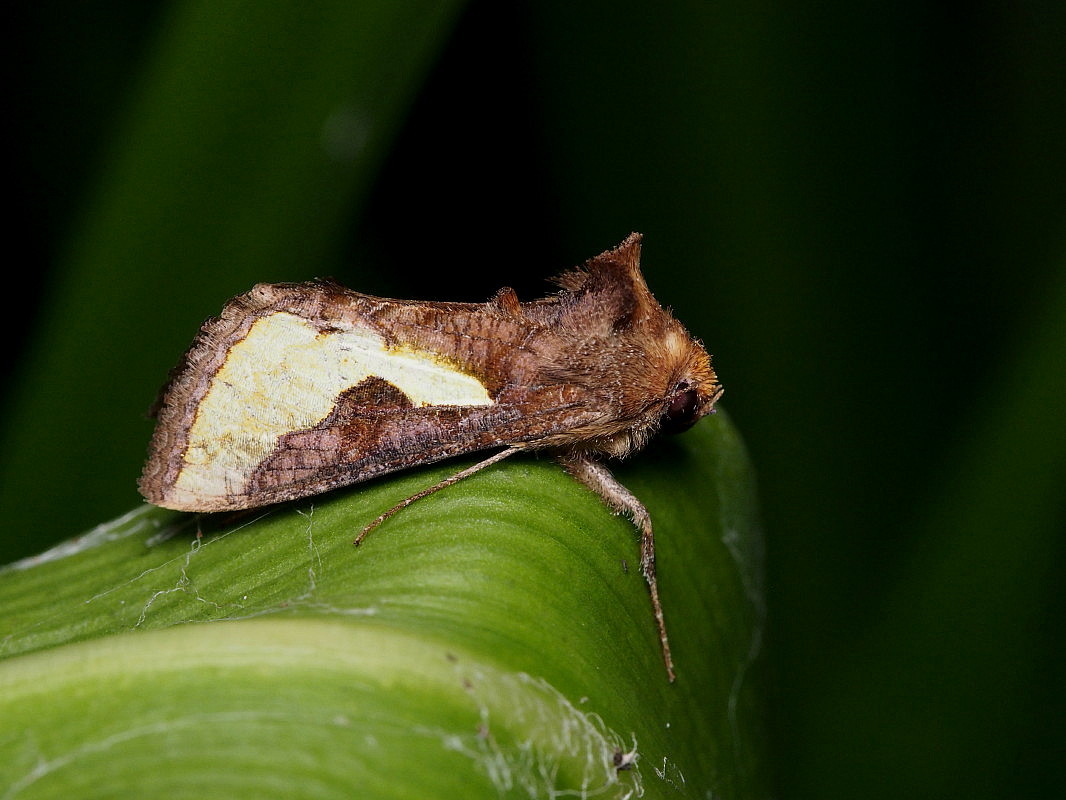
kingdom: Animalia
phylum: Arthropoda
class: Insecta
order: Lepidoptera
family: Noctuidae
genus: Thysanoplusia
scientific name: Thysanoplusia orichalcea
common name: Slender burnished brass, golden plusia
